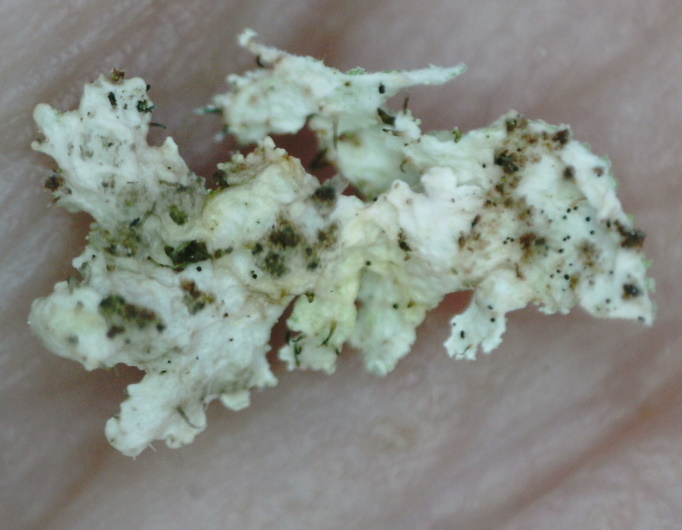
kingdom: Fungi
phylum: Ascomycota
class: Lecanoromycetes
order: Lecanorales
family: Parmeliaceae
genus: Imshaugia
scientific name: Imshaugia aleurites
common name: Salted starburst lichen
